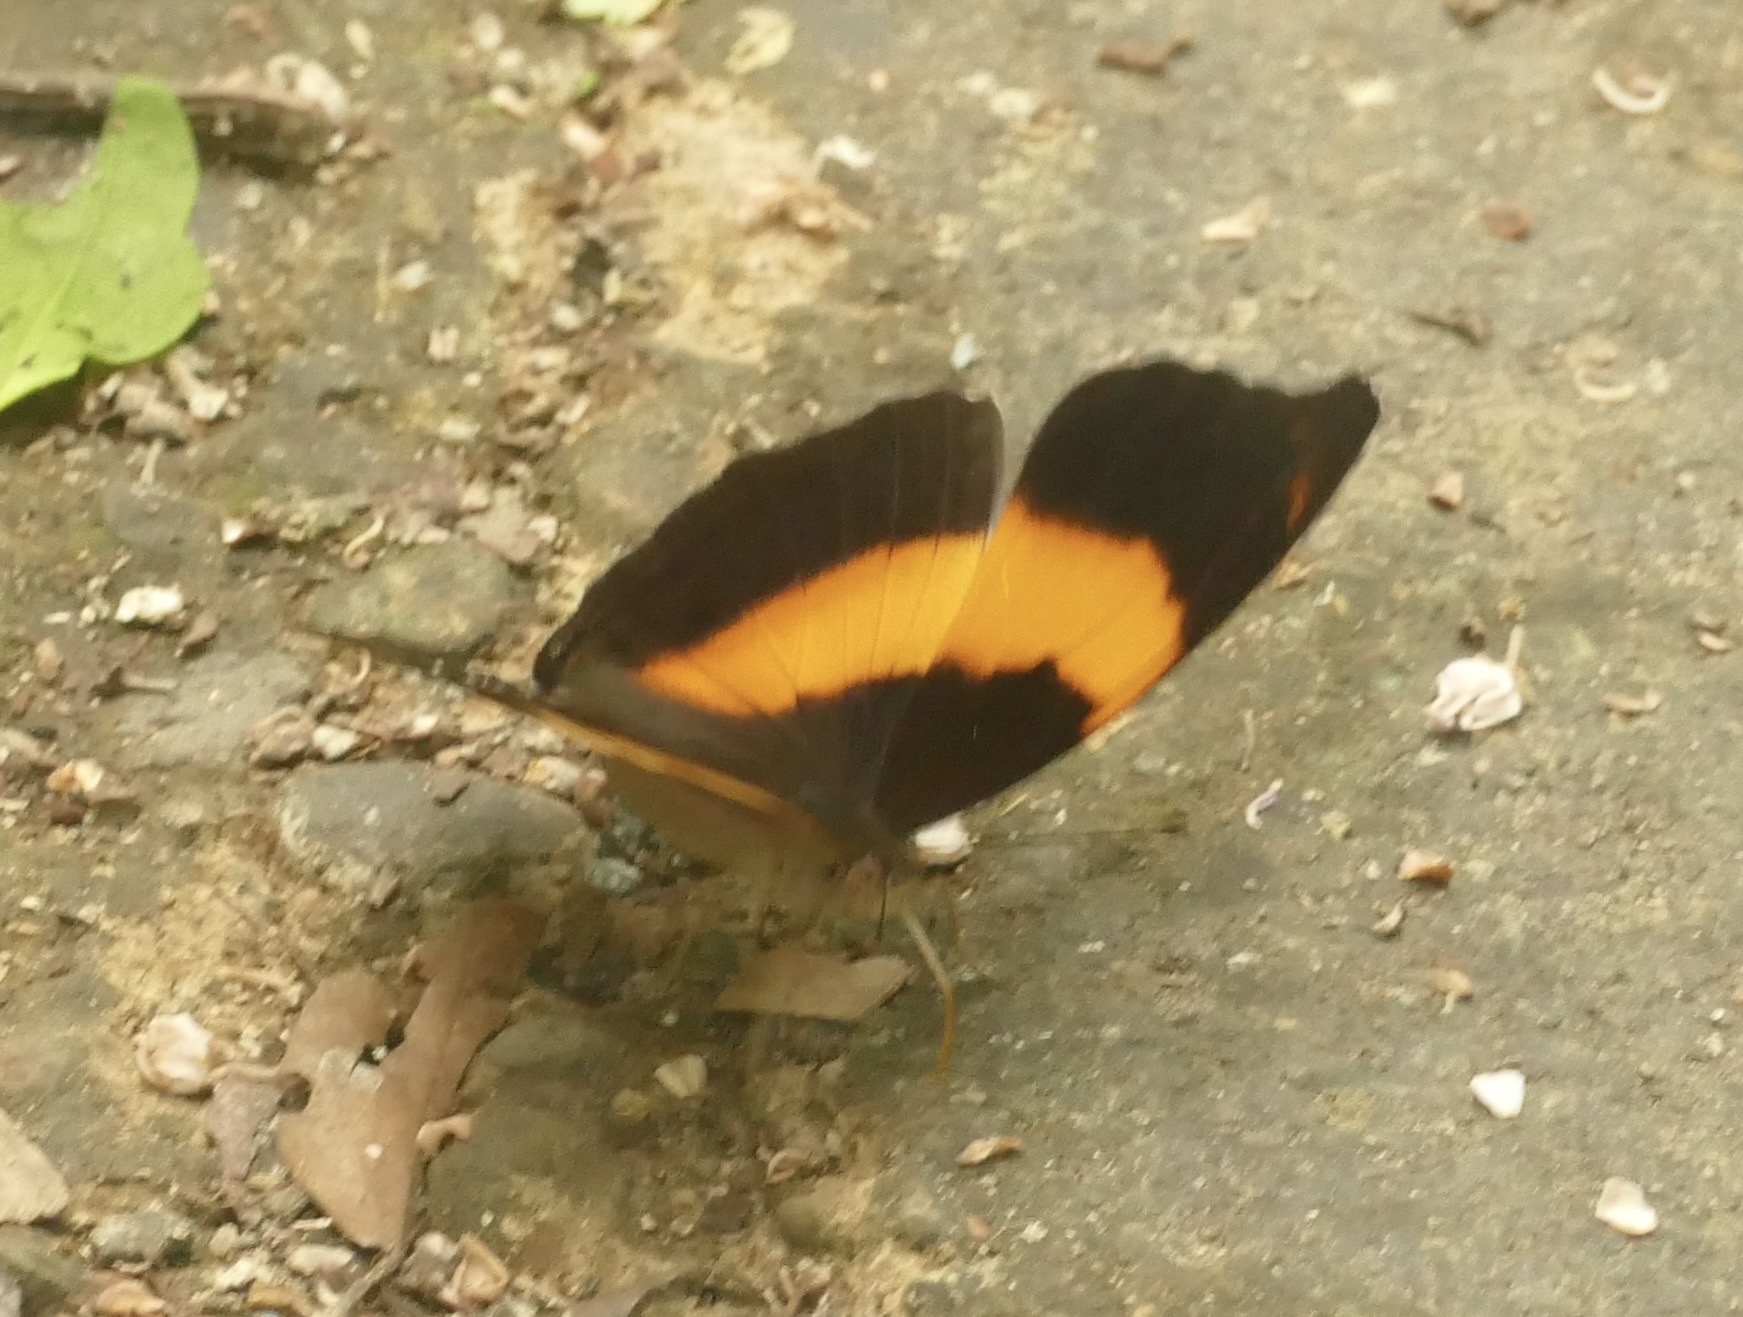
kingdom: Animalia
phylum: Arthropoda
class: Insecta
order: Lepidoptera
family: Nymphalidae
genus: Yoma
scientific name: Yoma algina
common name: New guinea lurcher
